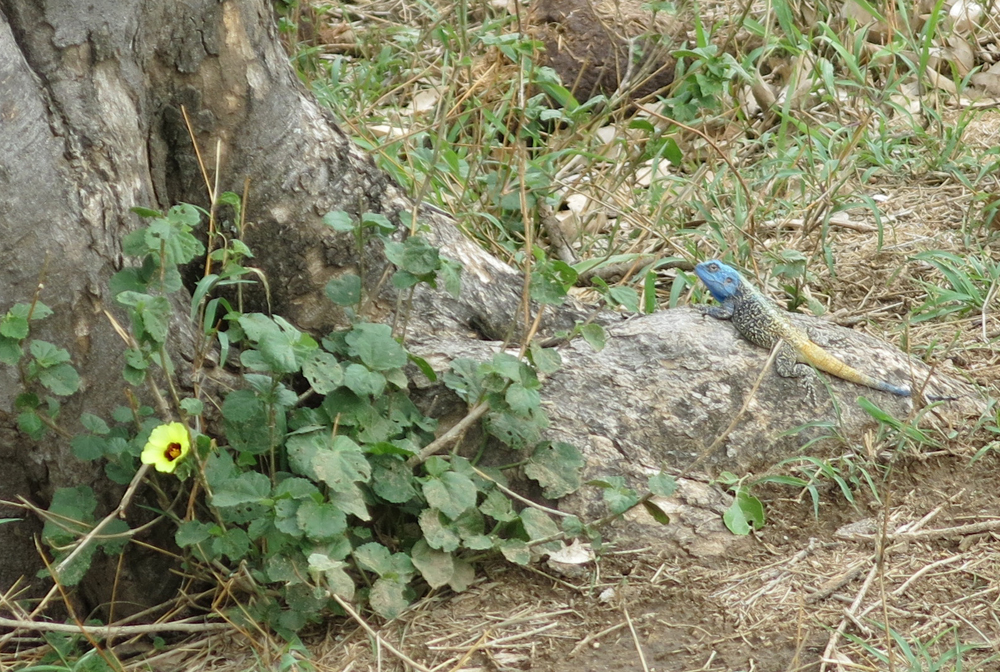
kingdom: Animalia
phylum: Chordata
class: Squamata
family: Agamidae
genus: Acanthocercus
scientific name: Acanthocercus atricollis
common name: Southern tree agama
